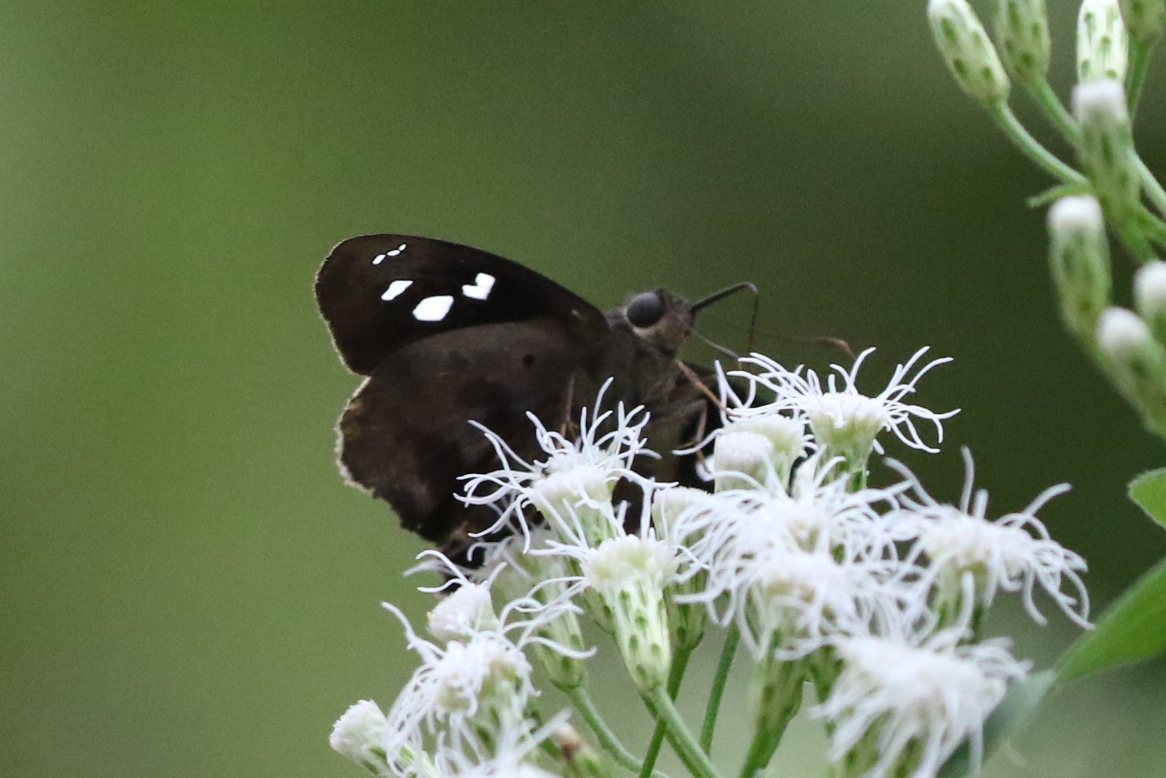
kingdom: Animalia
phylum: Arthropoda
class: Insecta
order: Lepidoptera
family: Hesperiidae
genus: Polygonus
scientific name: Polygonus leo
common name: Hammoch skipper
